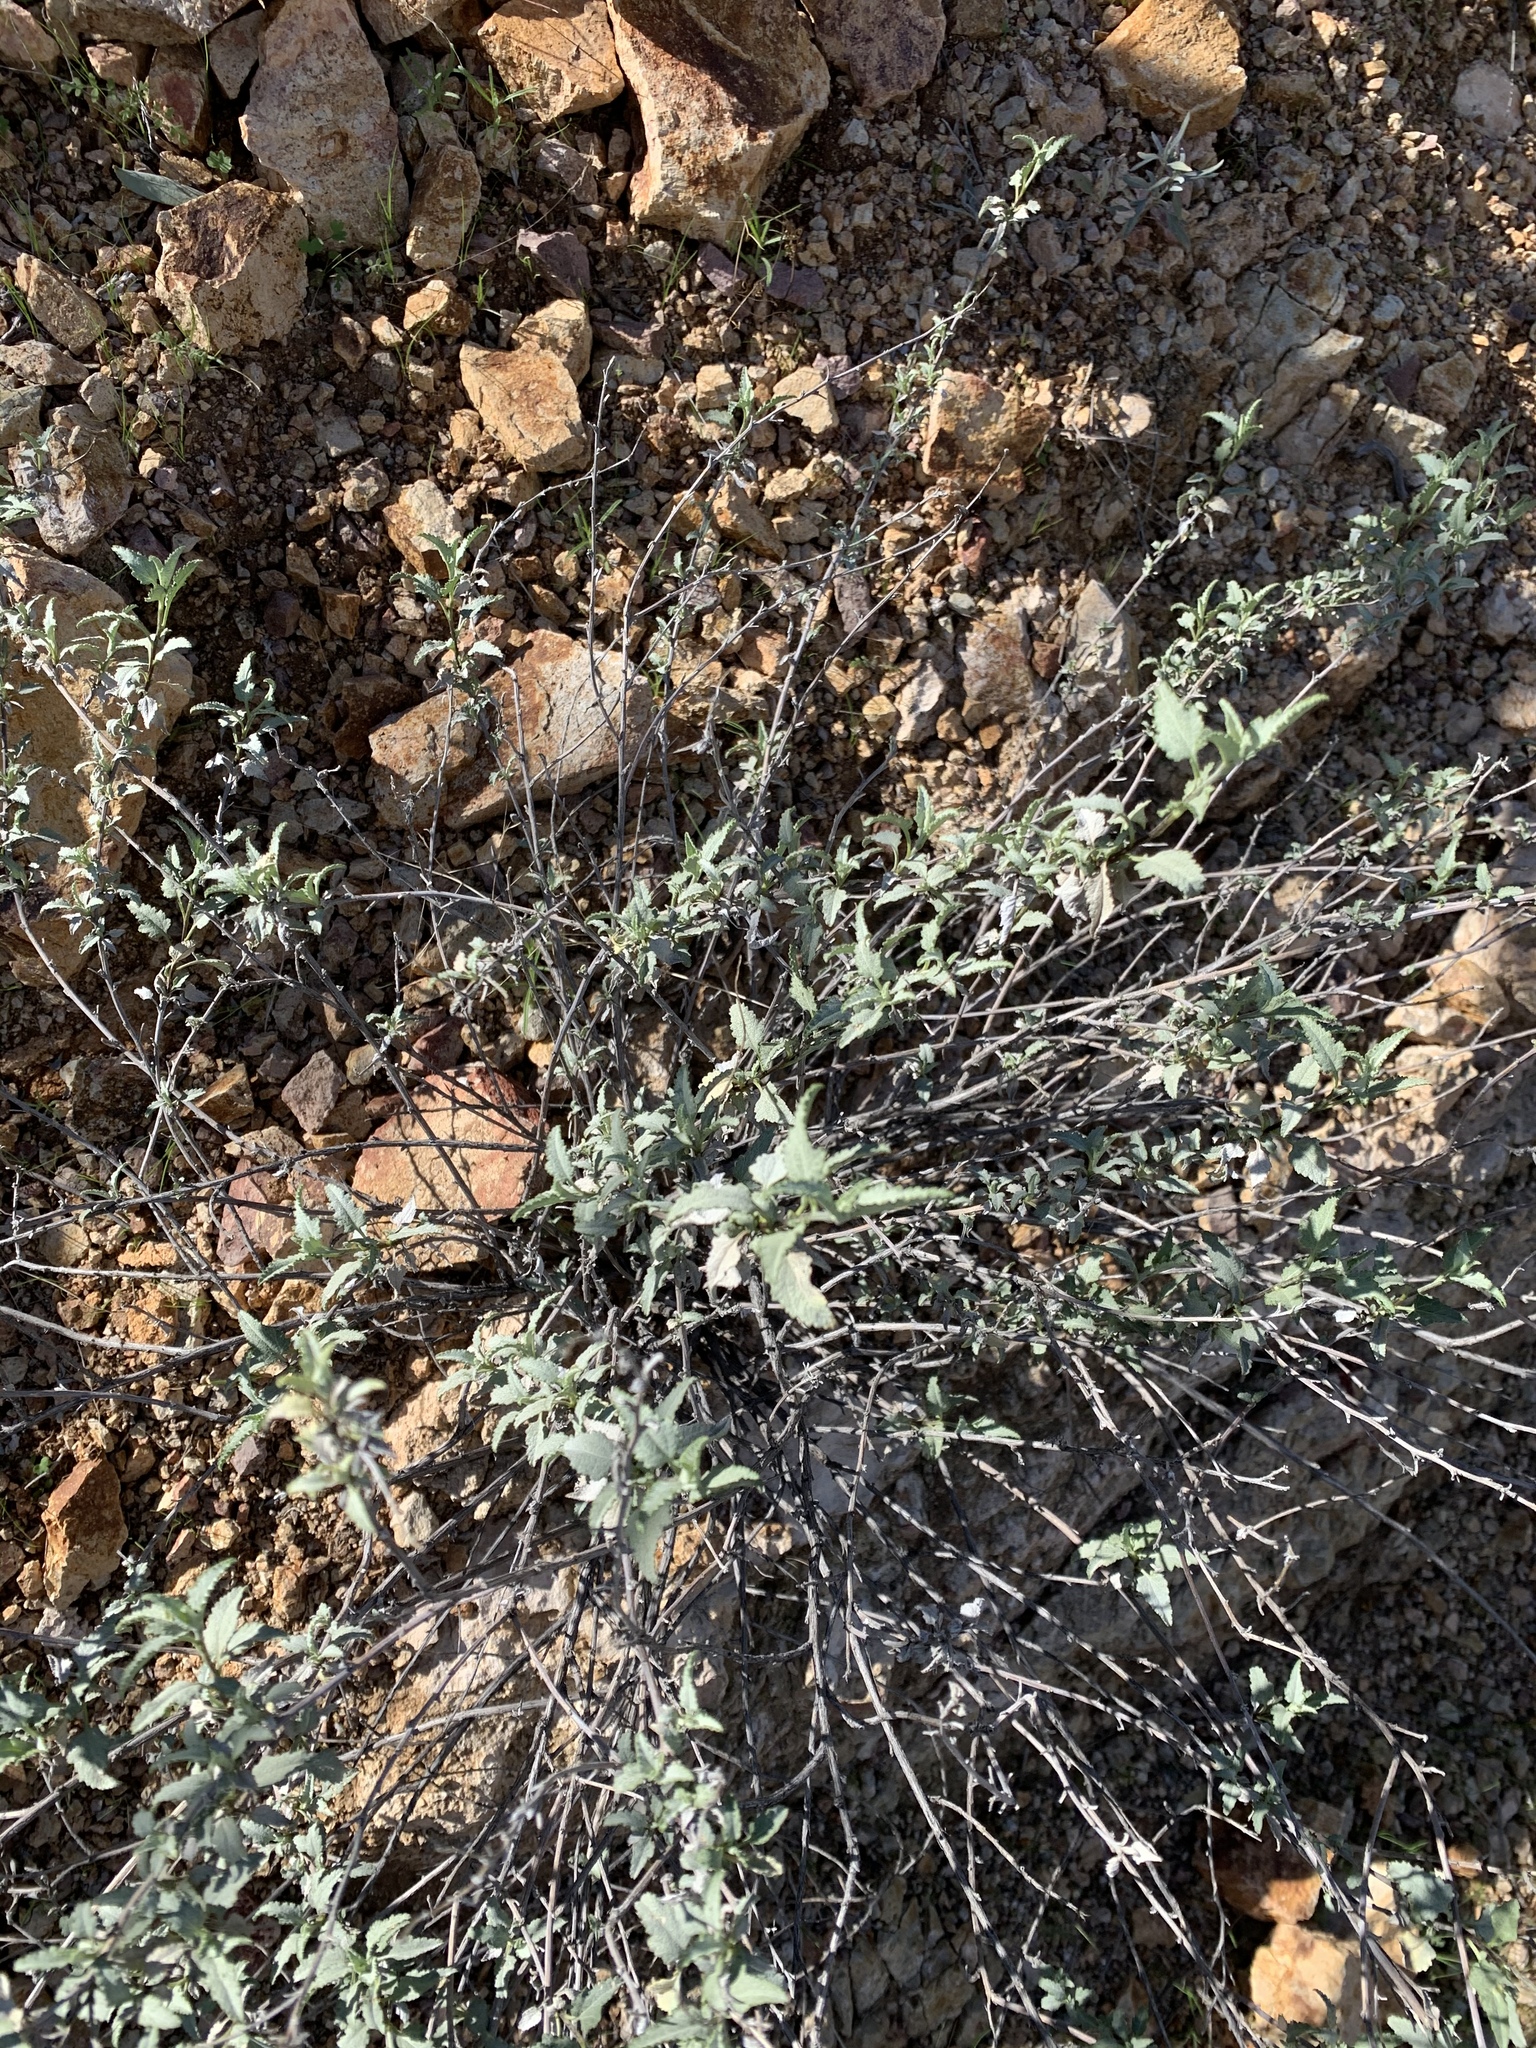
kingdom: Plantae
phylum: Tracheophyta
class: Magnoliopsida
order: Asterales
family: Asteraceae
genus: Ambrosia
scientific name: Ambrosia deltoidea
